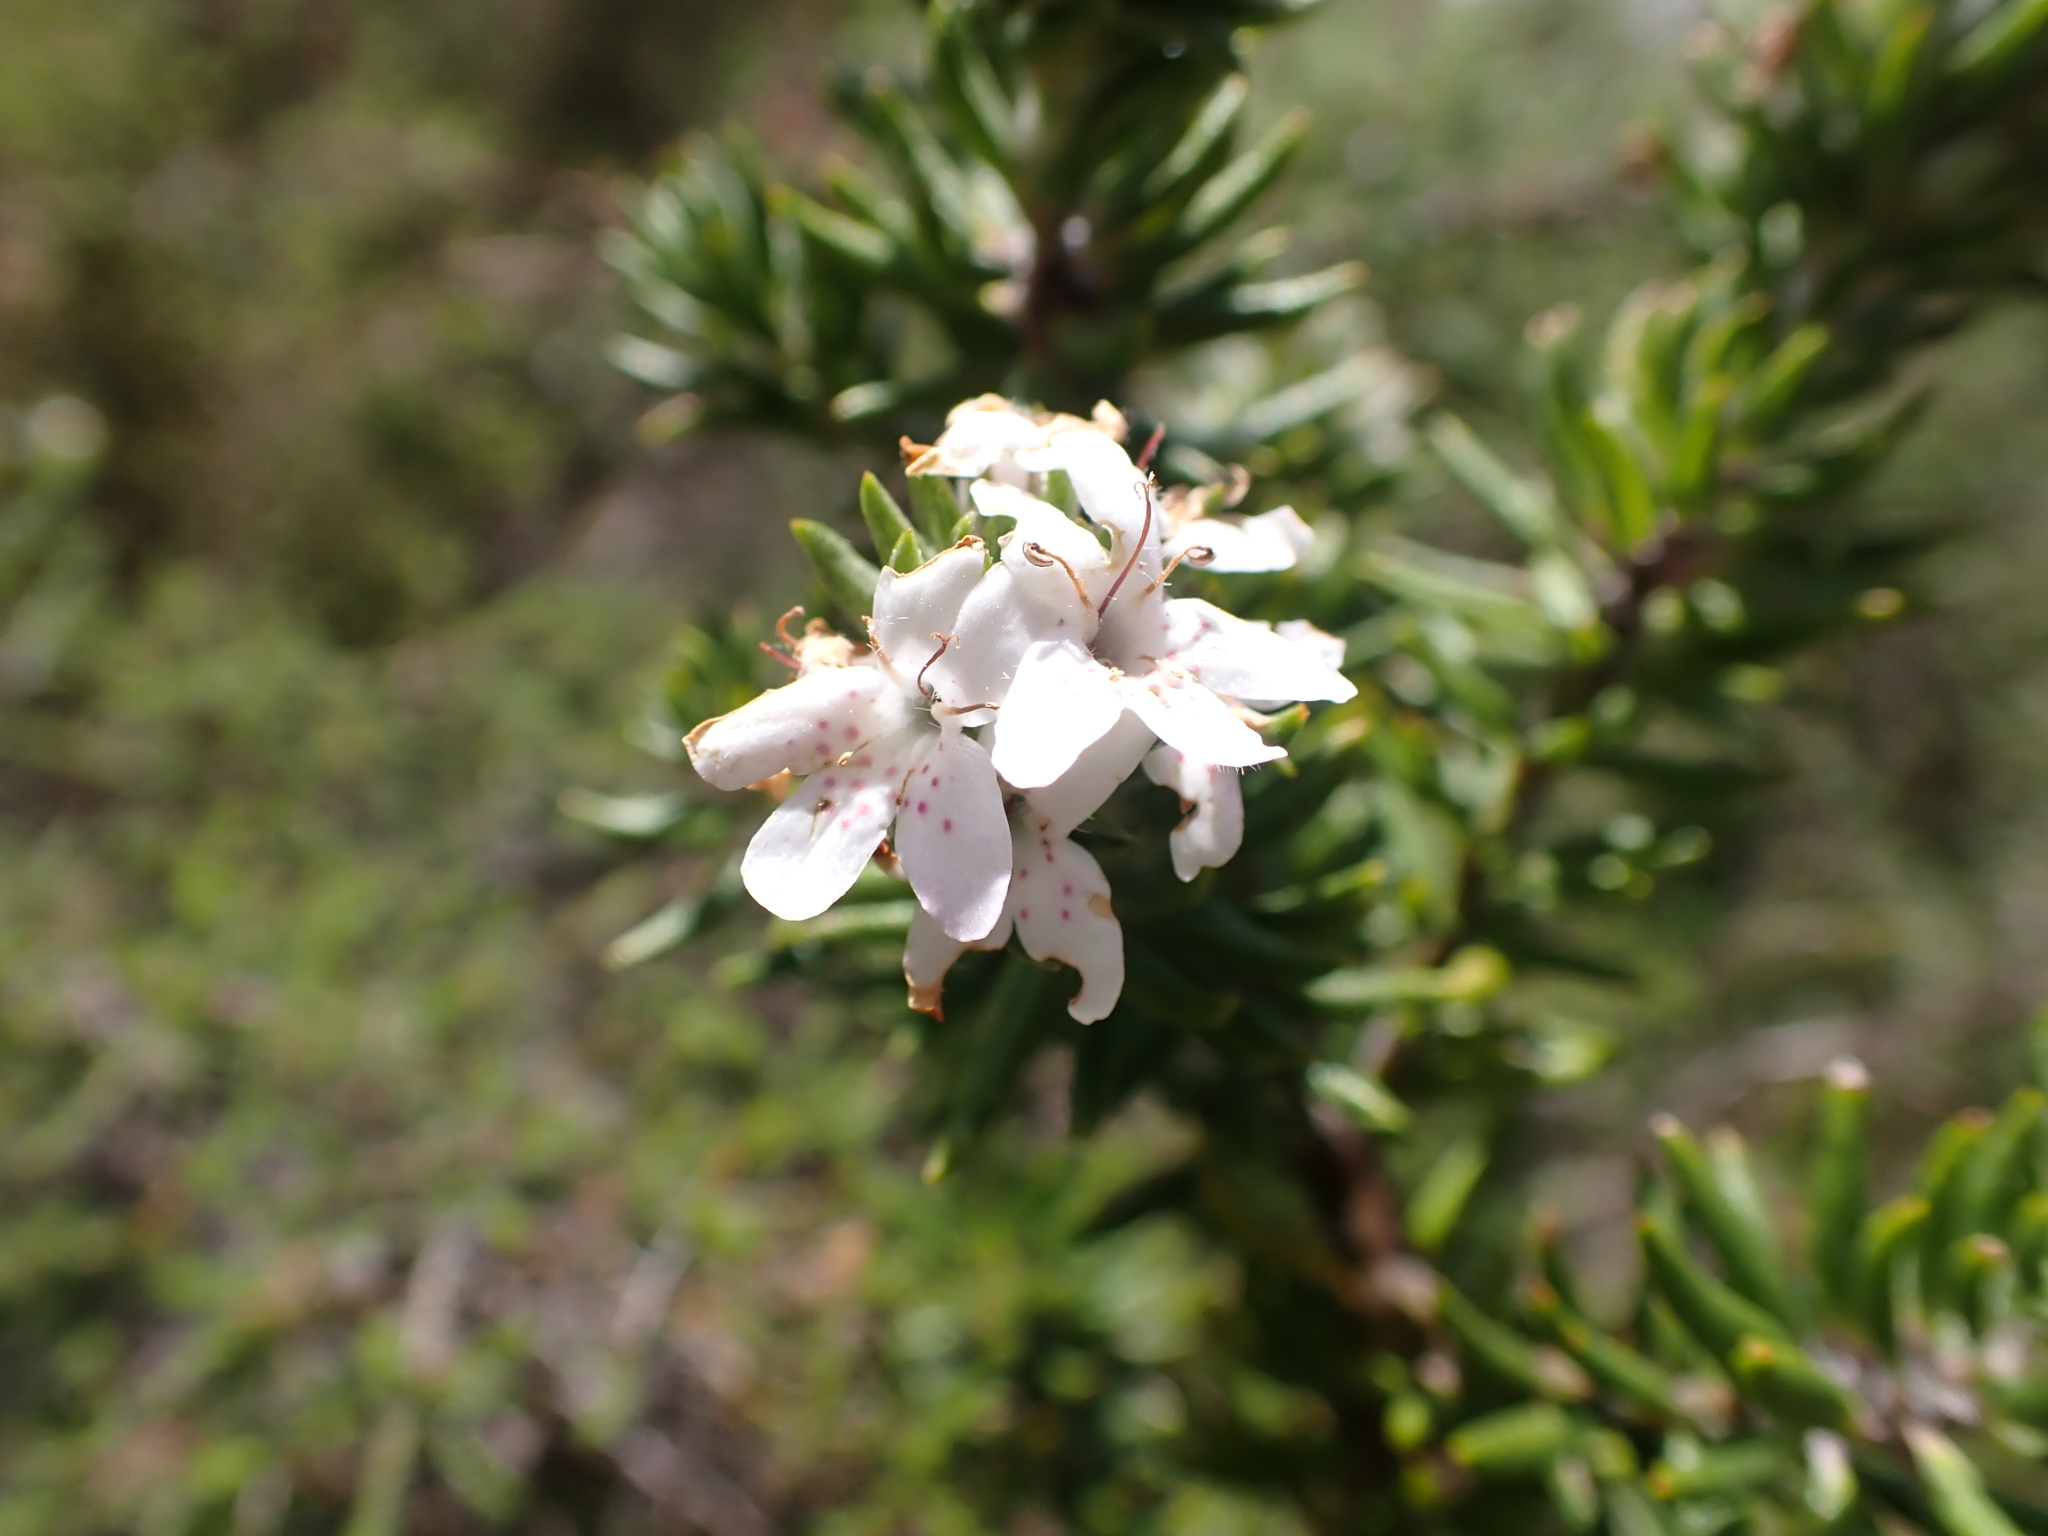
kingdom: Plantae
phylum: Tracheophyta
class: Magnoliopsida
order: Lamiales
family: Lamiaceae
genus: Westringia
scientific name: Westringia senifolia
